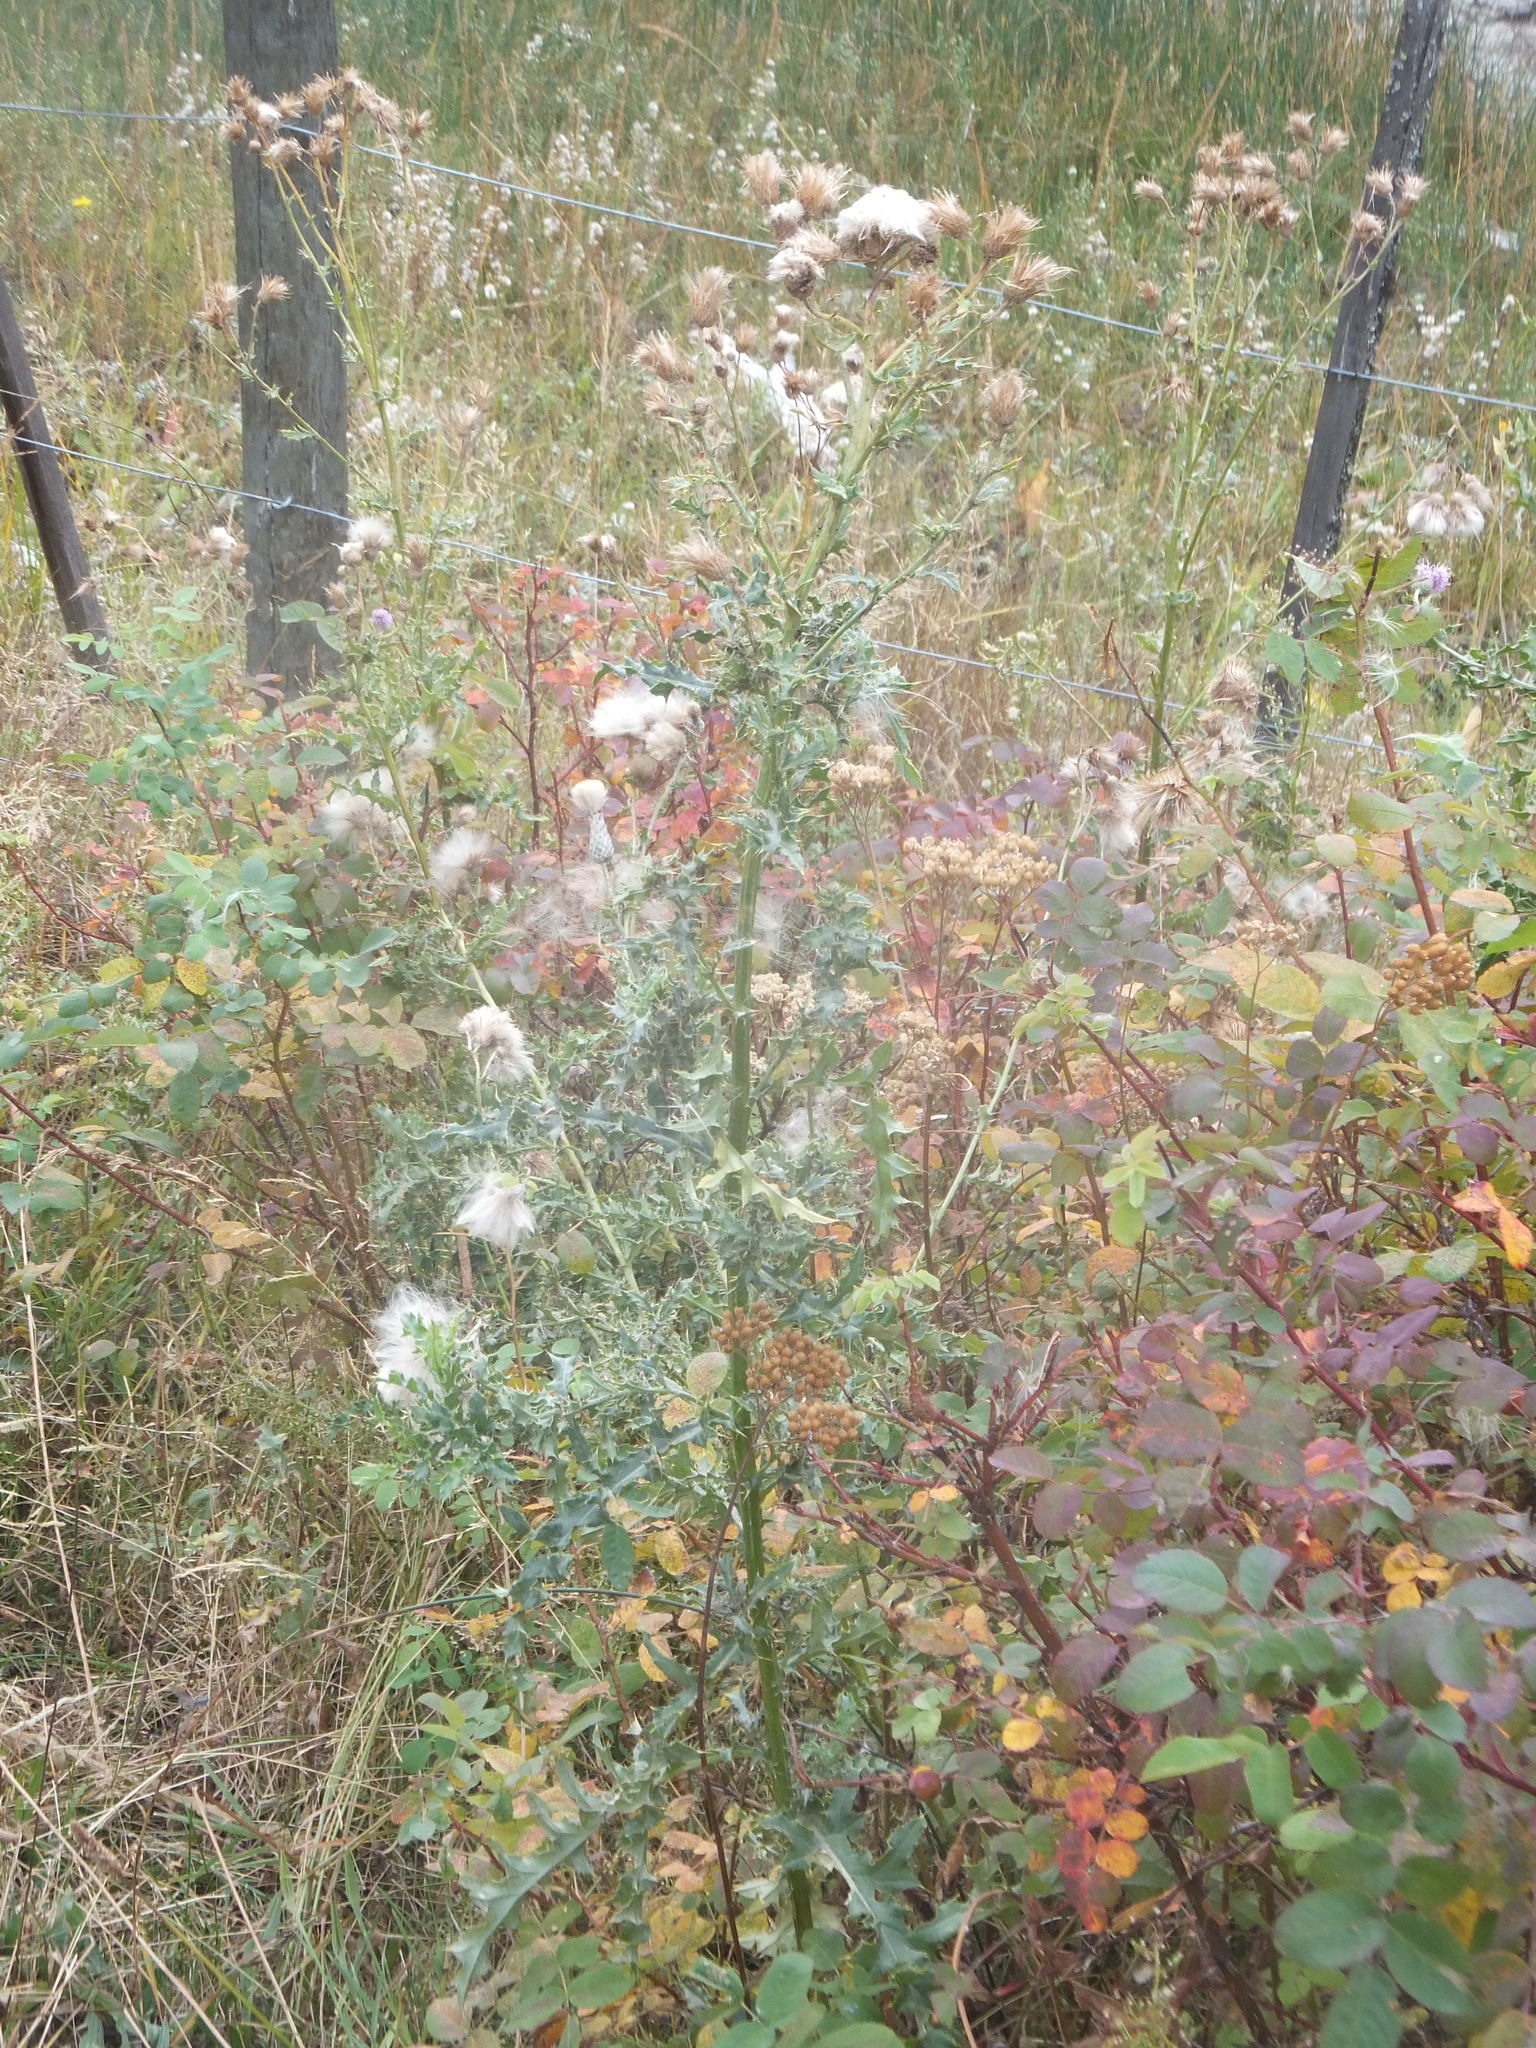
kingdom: Plantae
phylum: Tracheophyta
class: Magnoliopsida
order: Asterales
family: Asteraceae
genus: Cirsium
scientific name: Cirsium arvense
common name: Creeping thistle
